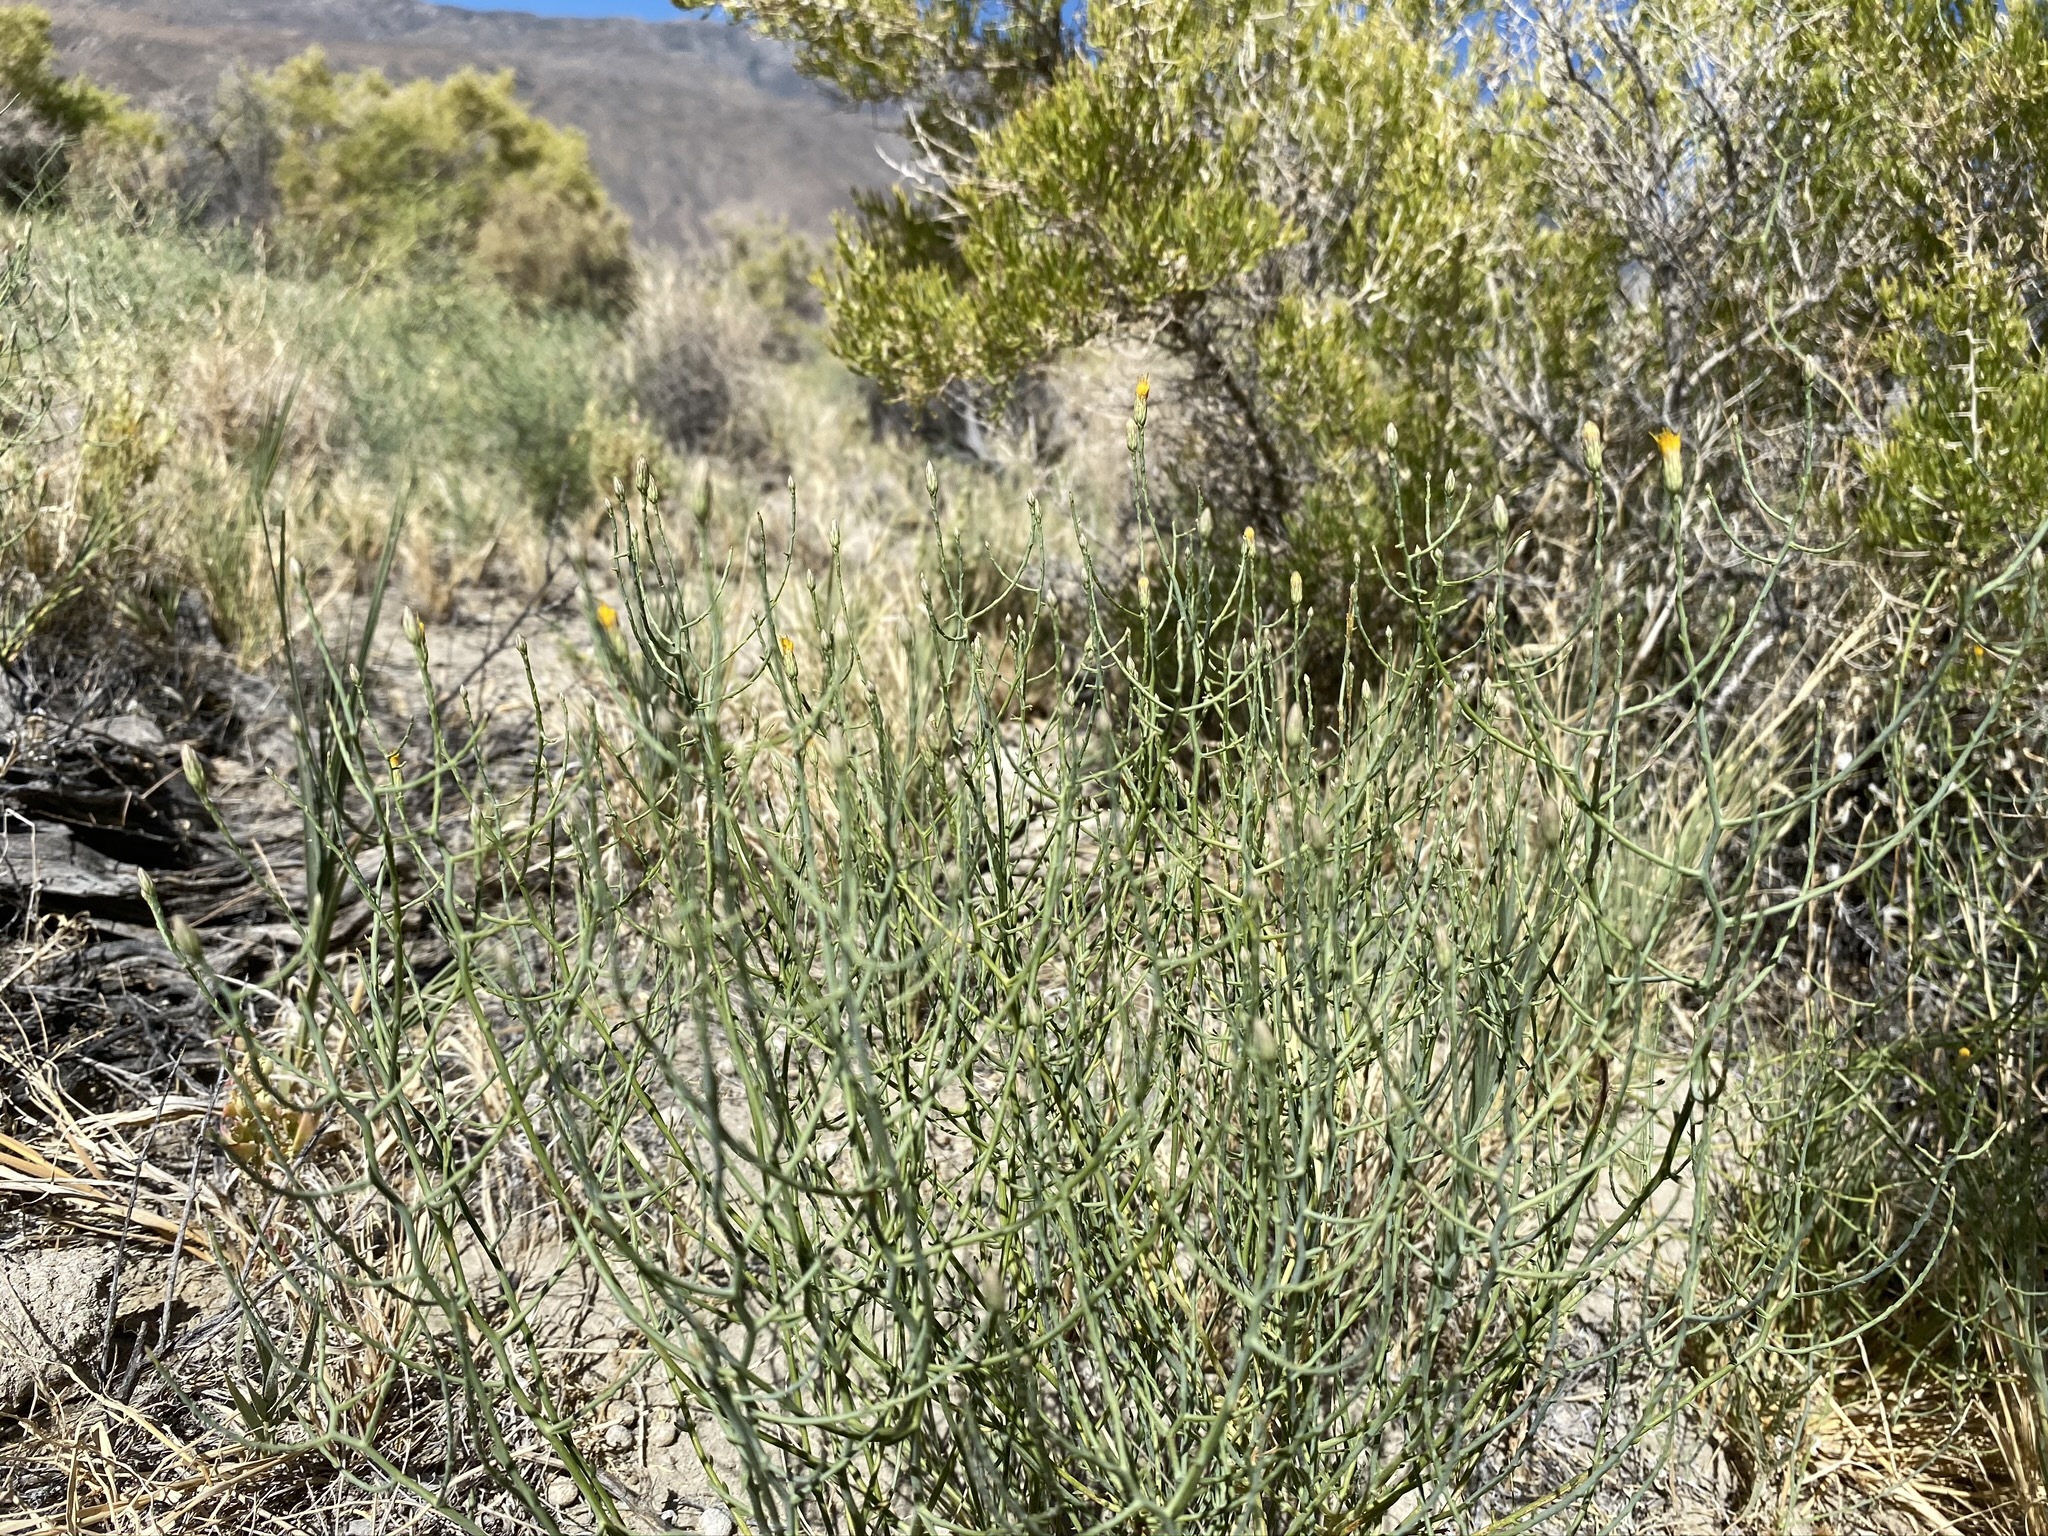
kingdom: Plantae
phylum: Tracheophyta
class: Magnoliopsida
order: Asterales
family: Asteraceae
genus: Leucosyris
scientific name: Leucosyris carnosa
